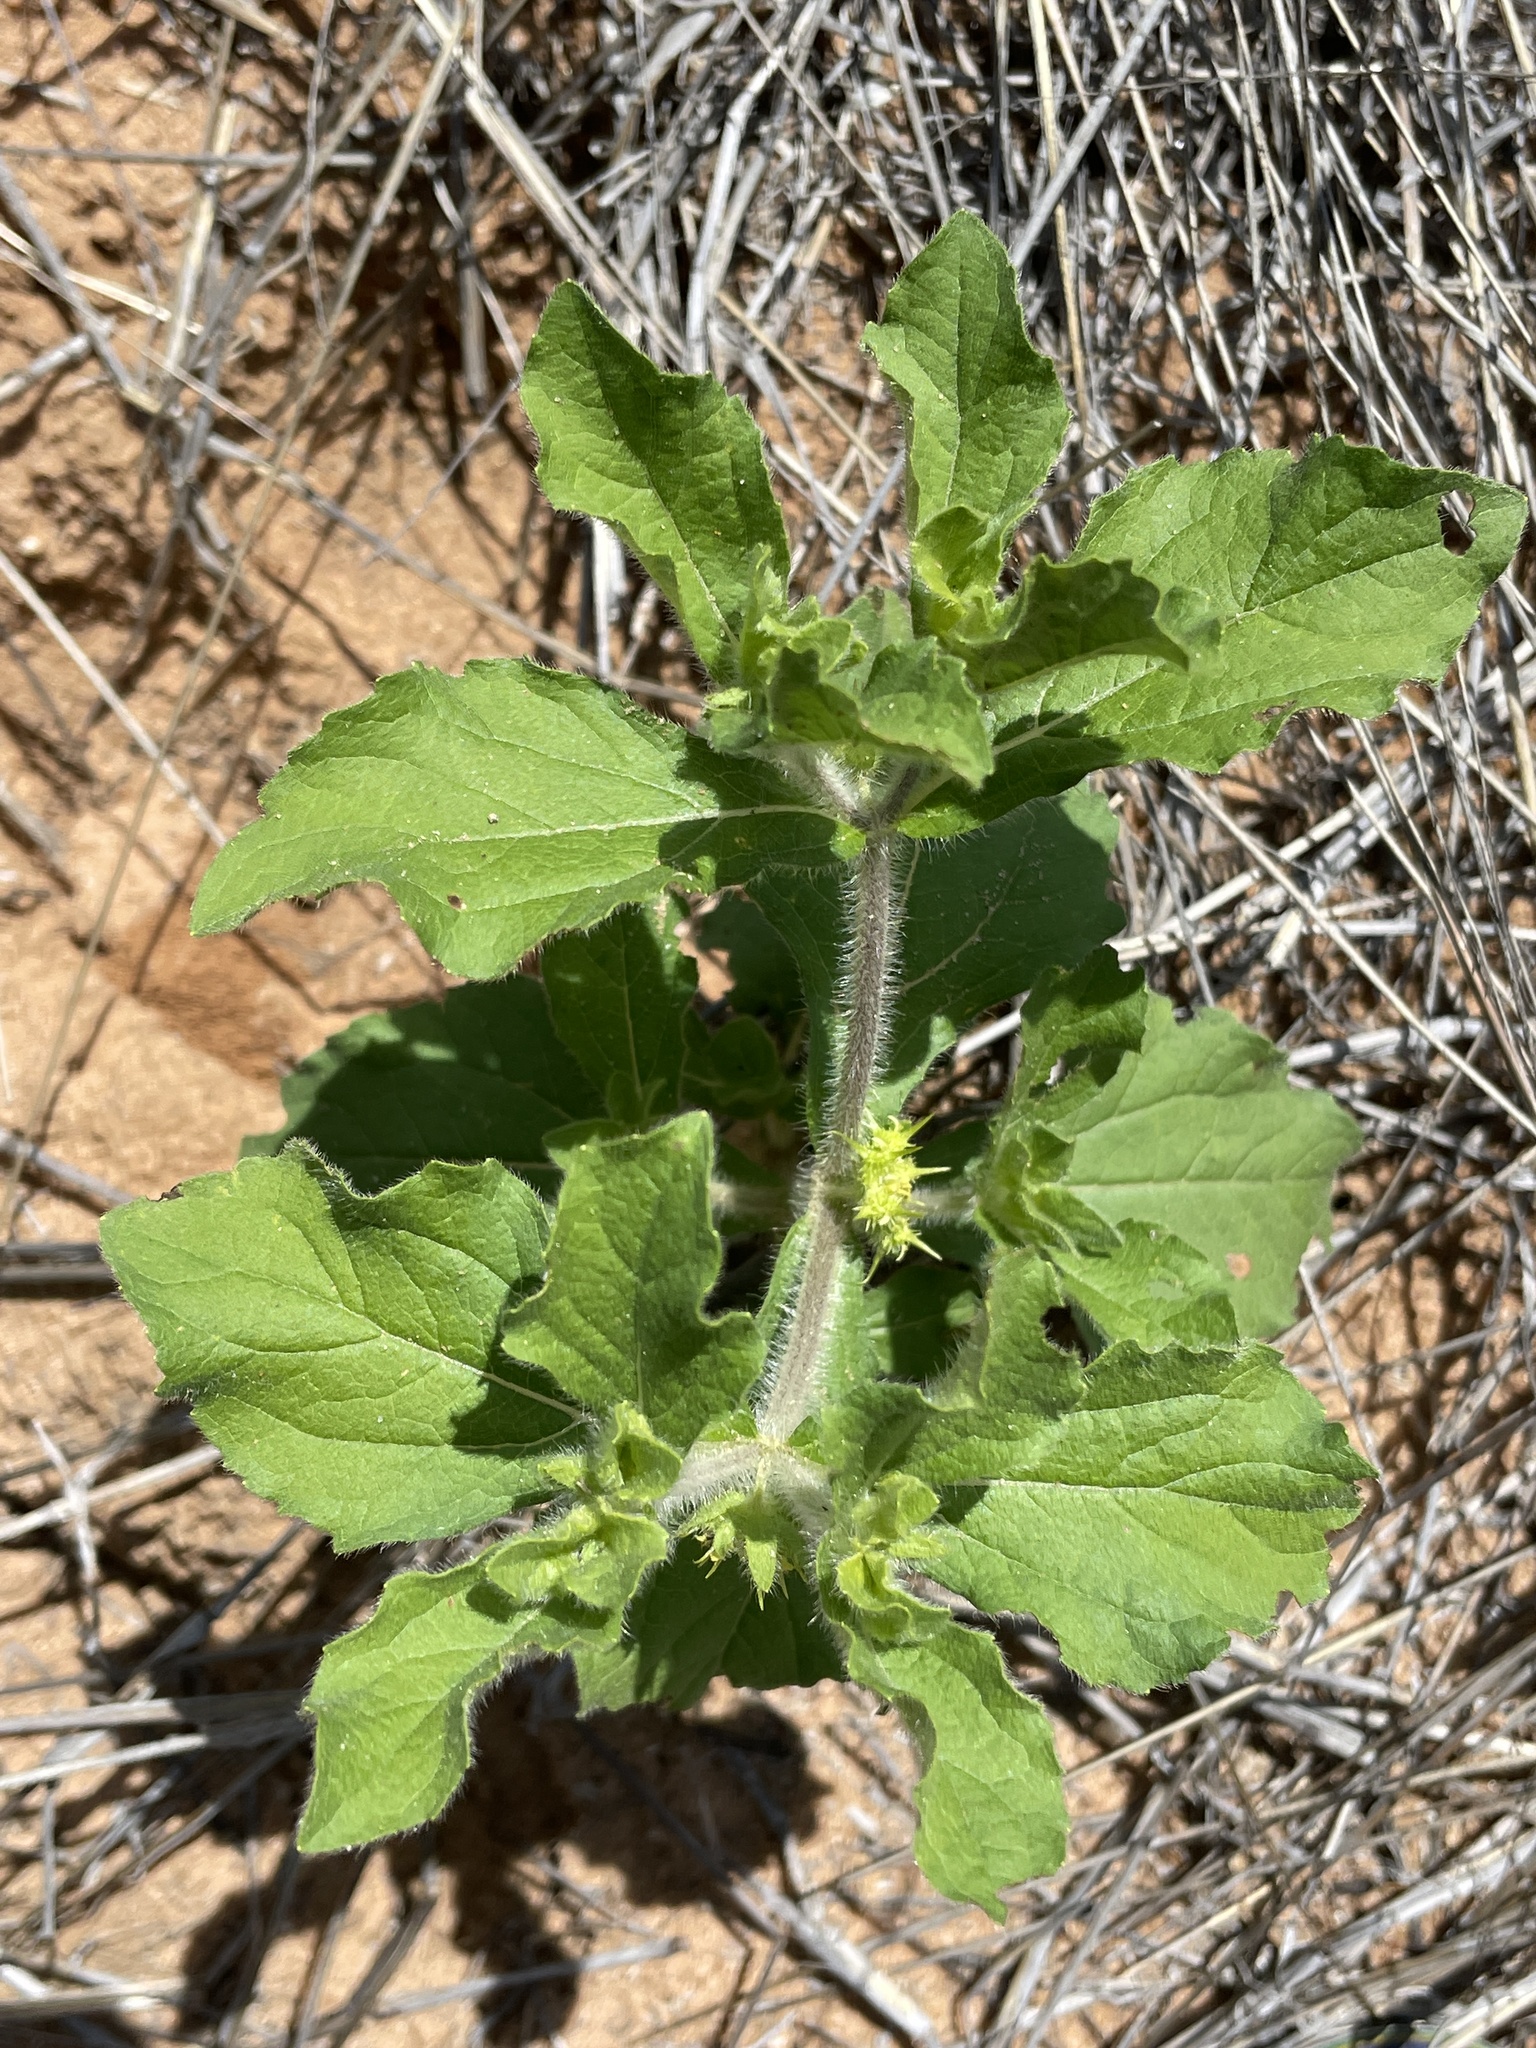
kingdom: Plantae
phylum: Tracheophyta
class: Magnoliopsida
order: Asterales
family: Asteraceae
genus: Acanthospermum
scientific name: Acanthospermum hispidum
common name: Hispid starbur
